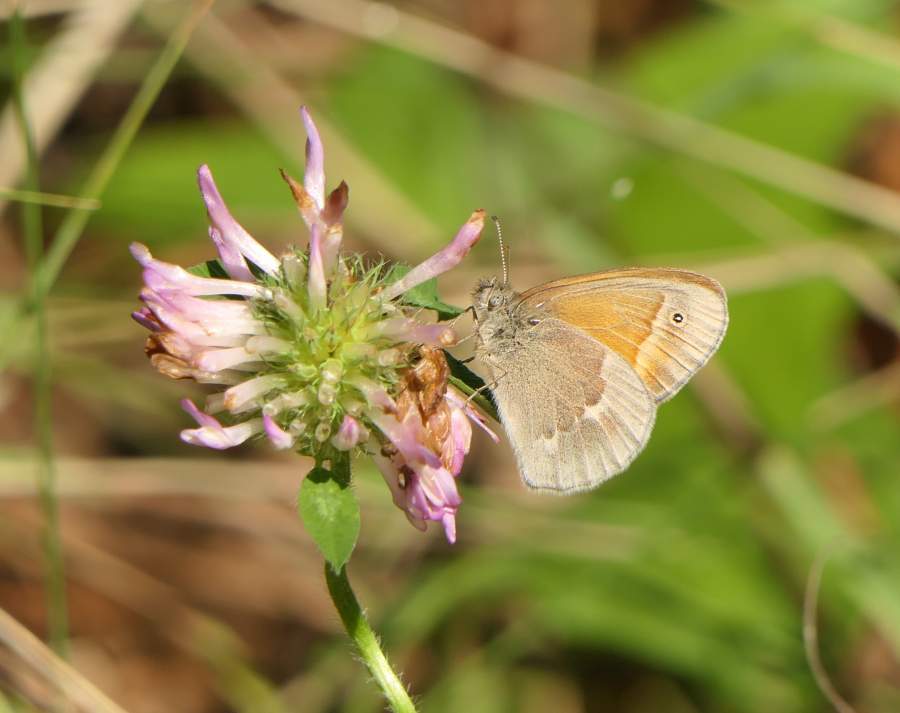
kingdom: Animalia
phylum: Arthropoda
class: Insecta
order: Lepidoptera
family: Nymphalidae
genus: Coenonympha
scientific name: Coenonympha california
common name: Common ringlet
